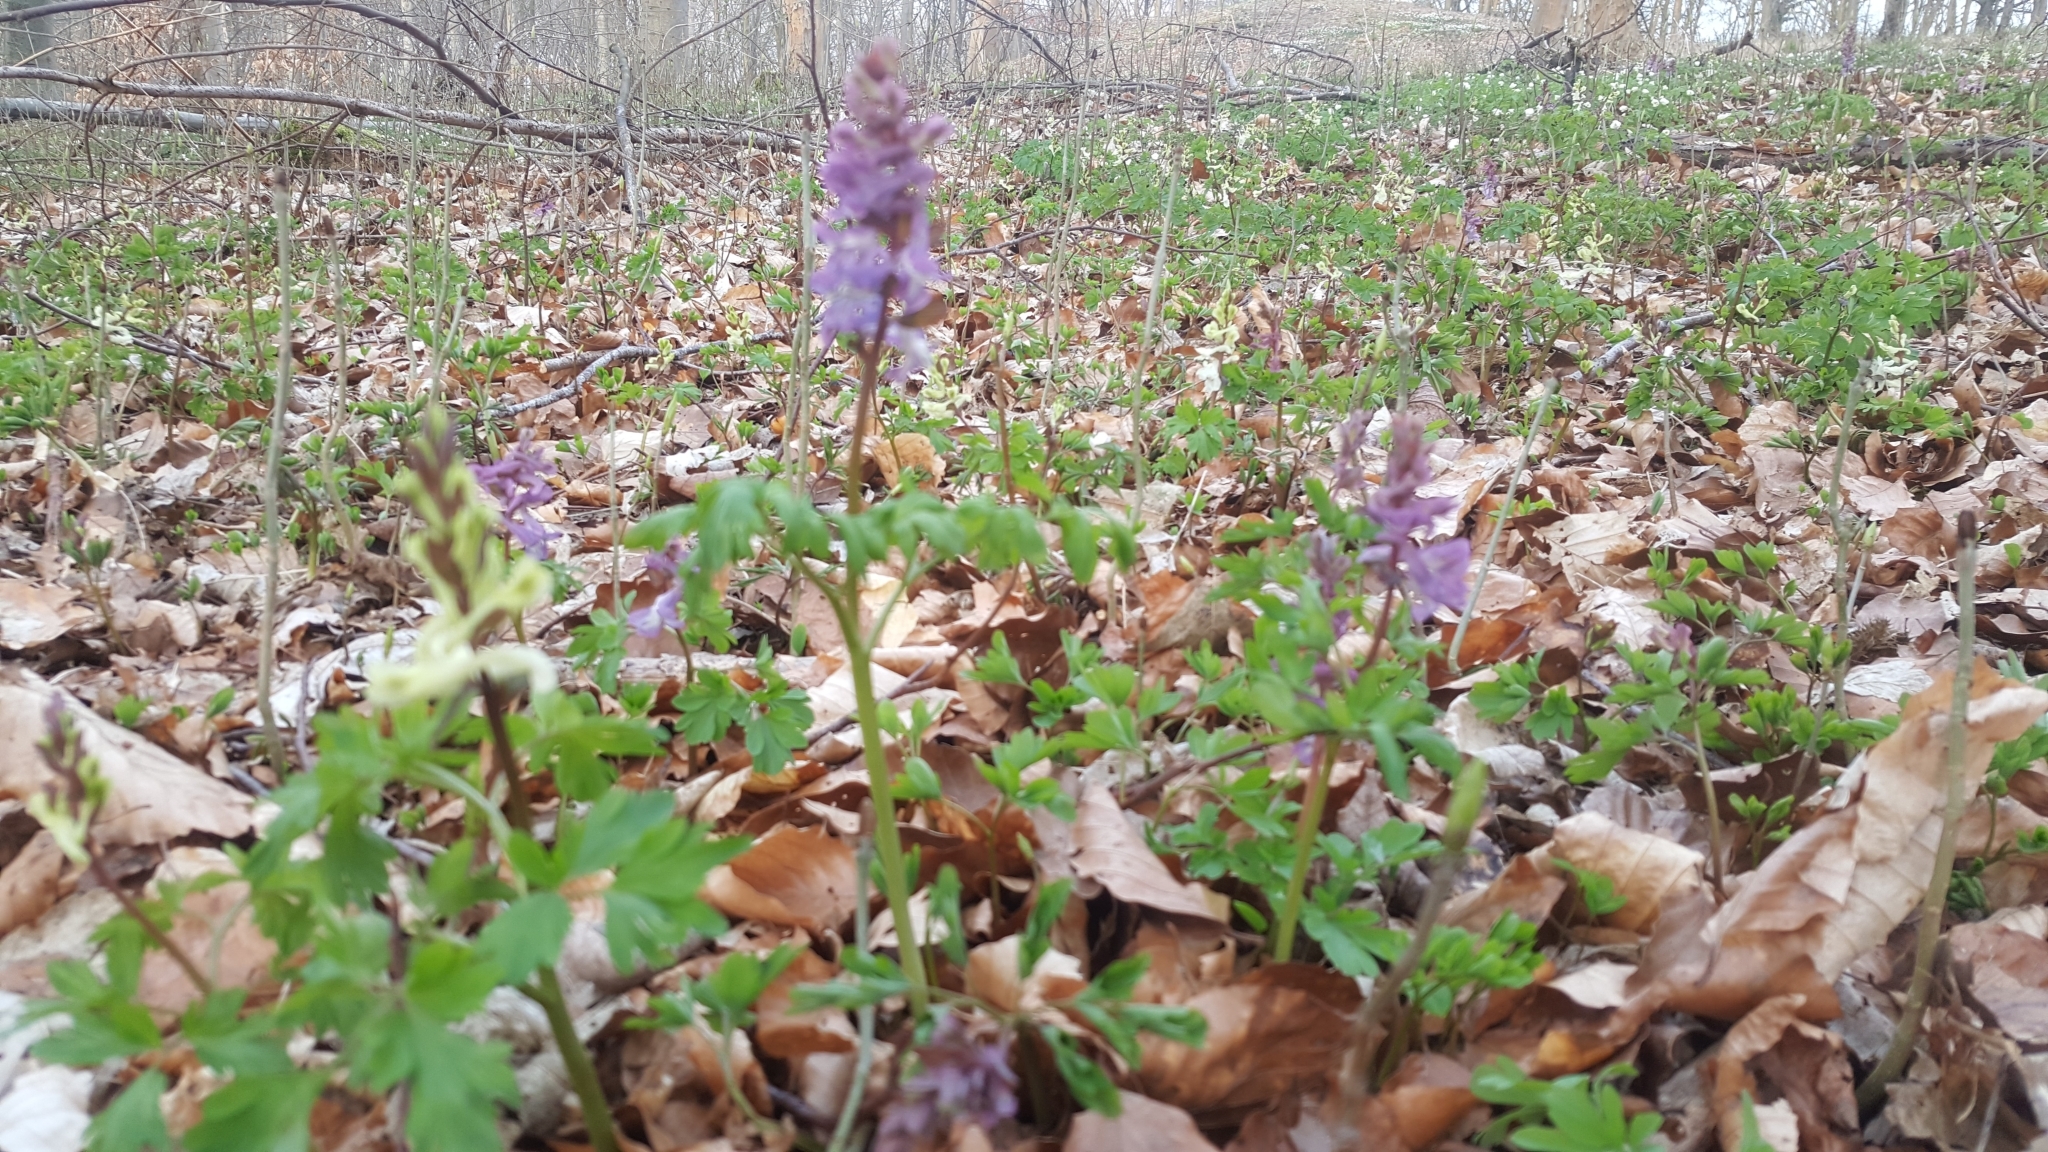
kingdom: Plantae
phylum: Tracheophyta
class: Magnoliopsida
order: Ranunculales
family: Papaveraceae
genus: Corydalis
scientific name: Corydalis cava
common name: Hollowroot
